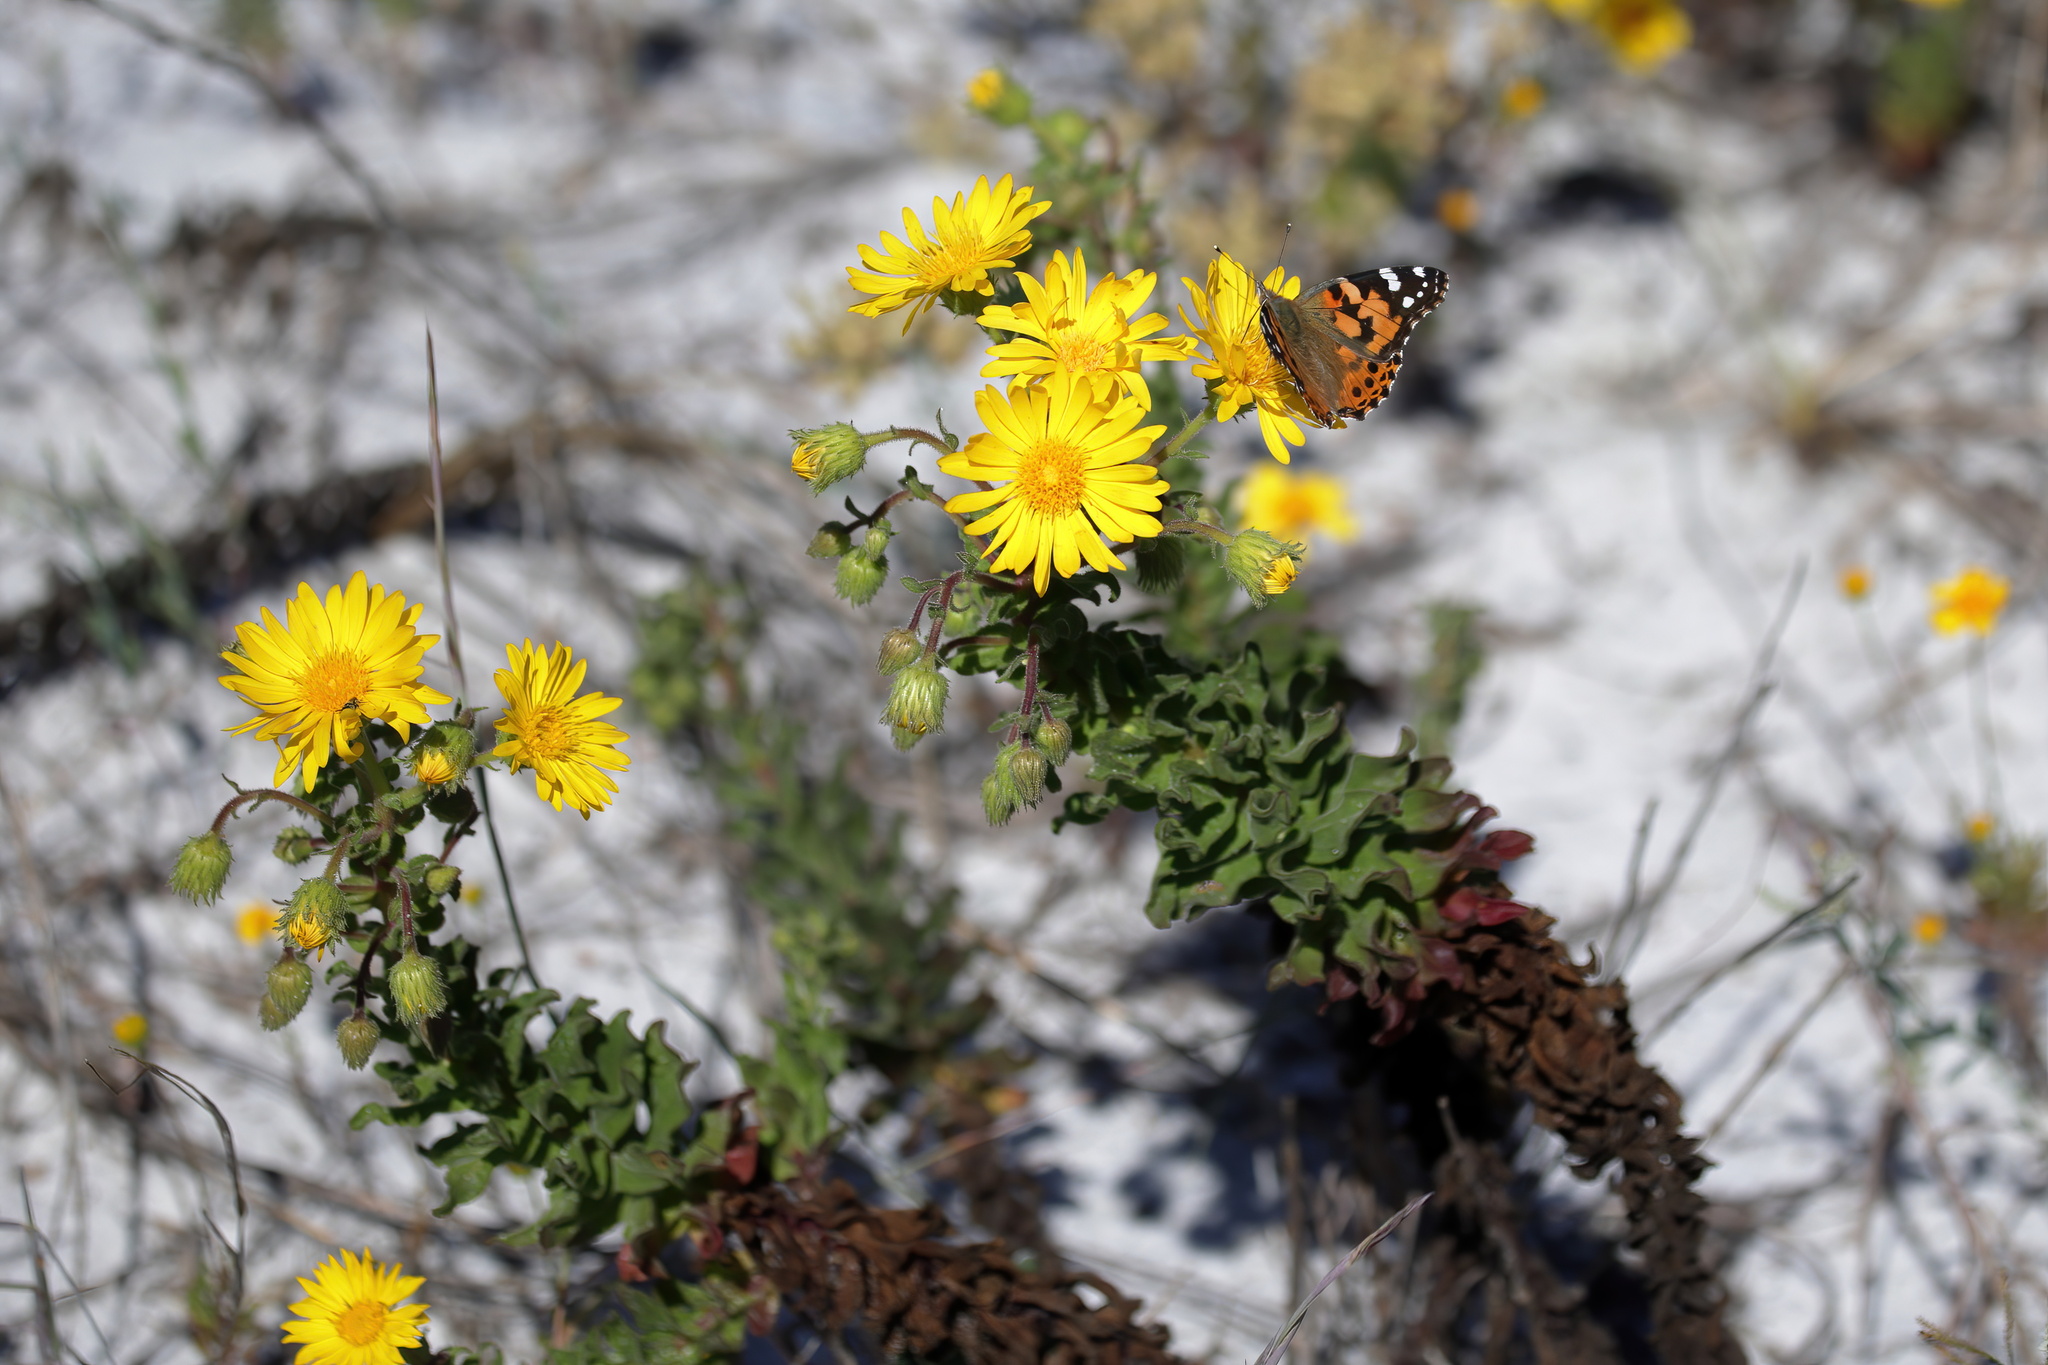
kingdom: Plantae
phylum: Tracheophyta
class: Magnoliopsida
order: Asterales
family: Asteraceae
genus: Chrysopsis
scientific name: Chrysopsis godfreyi
